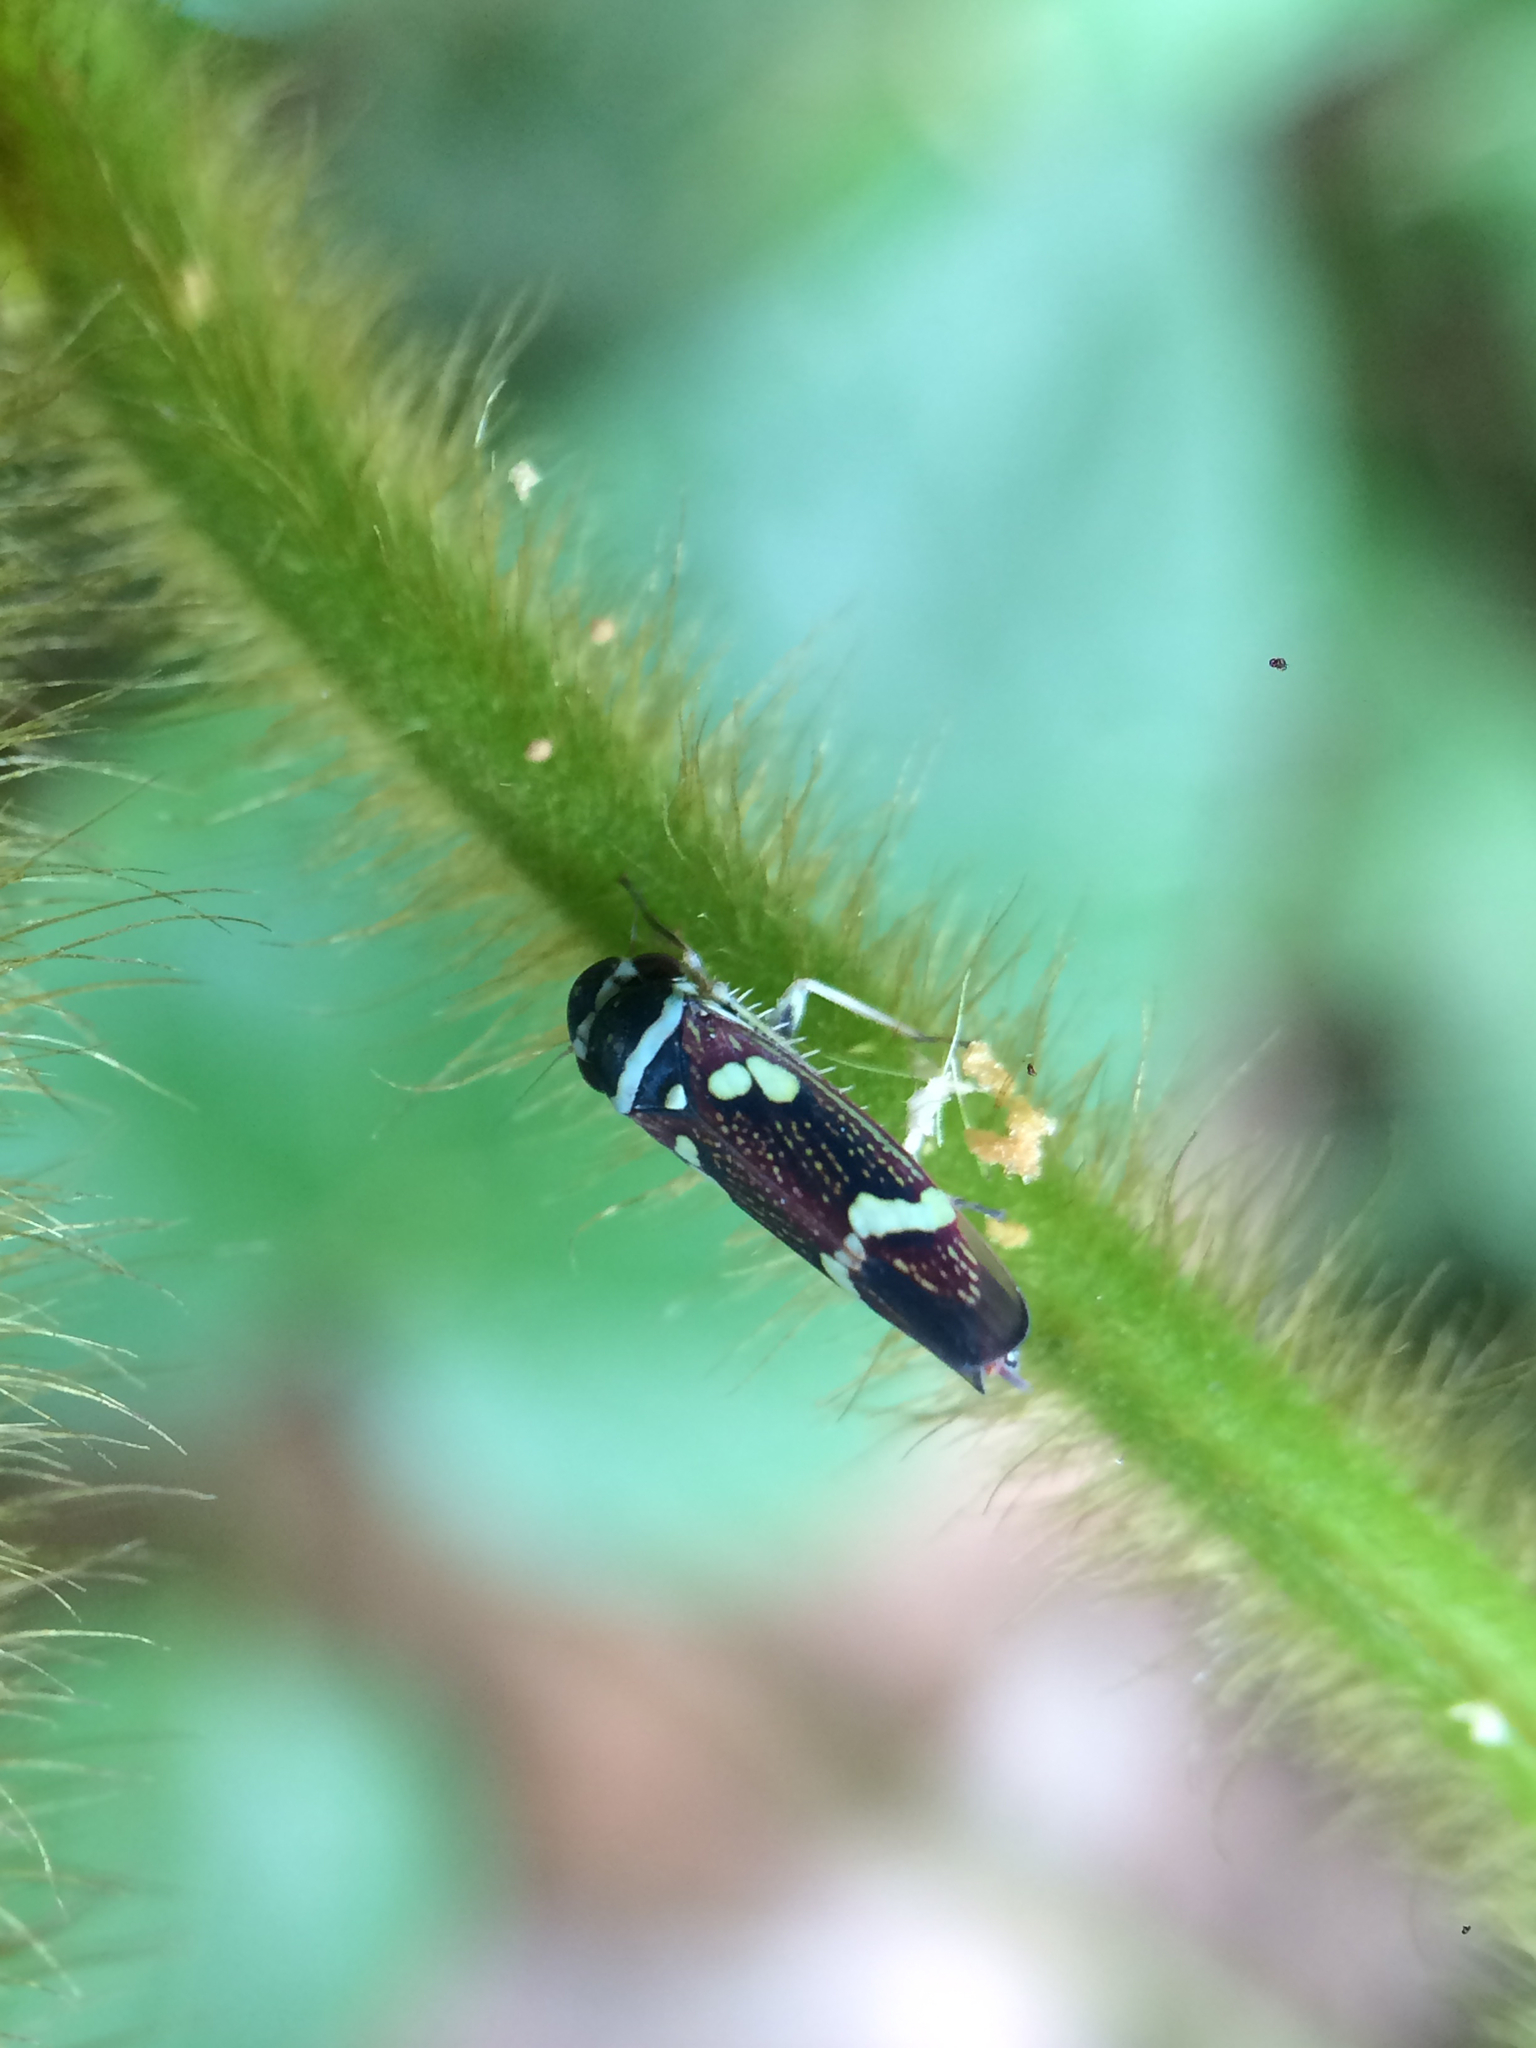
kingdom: Animalia
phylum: Arthropoda
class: Insecta
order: Hemiptera
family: Cicadellidae
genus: Macugonalia
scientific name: Macugonalia leucomelas
